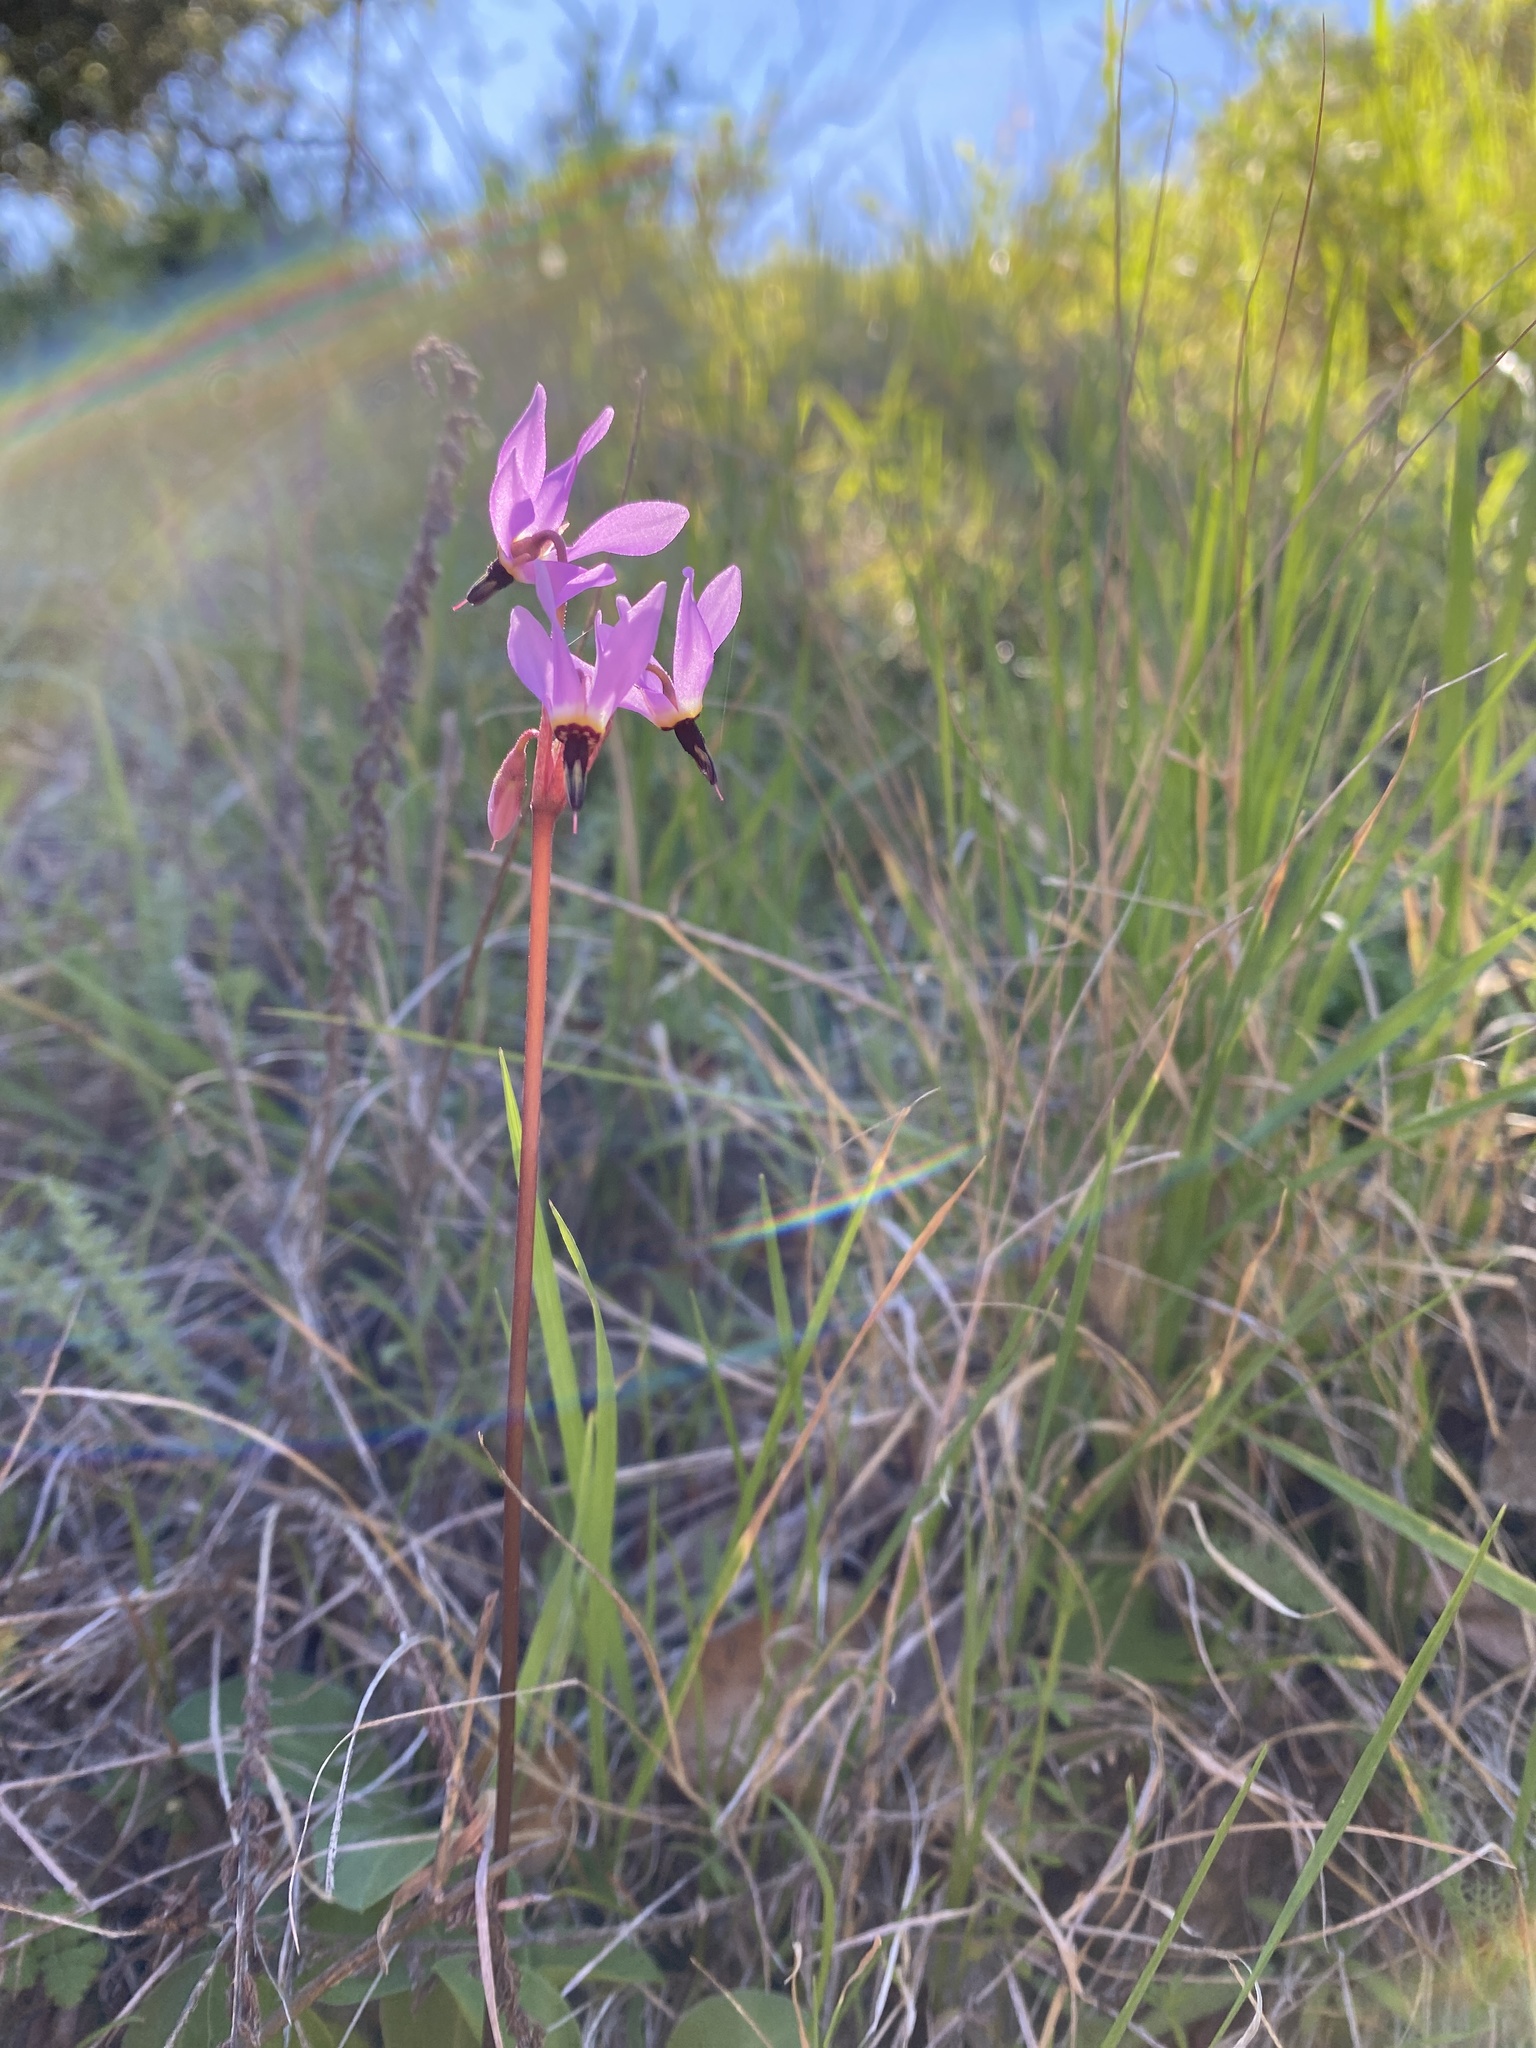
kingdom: Plantae
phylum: Tracheophyta
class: Magnoliopsida
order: Ericales
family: Primulaceae
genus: Dodecatheon
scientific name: Dodecatheon hendersonii
